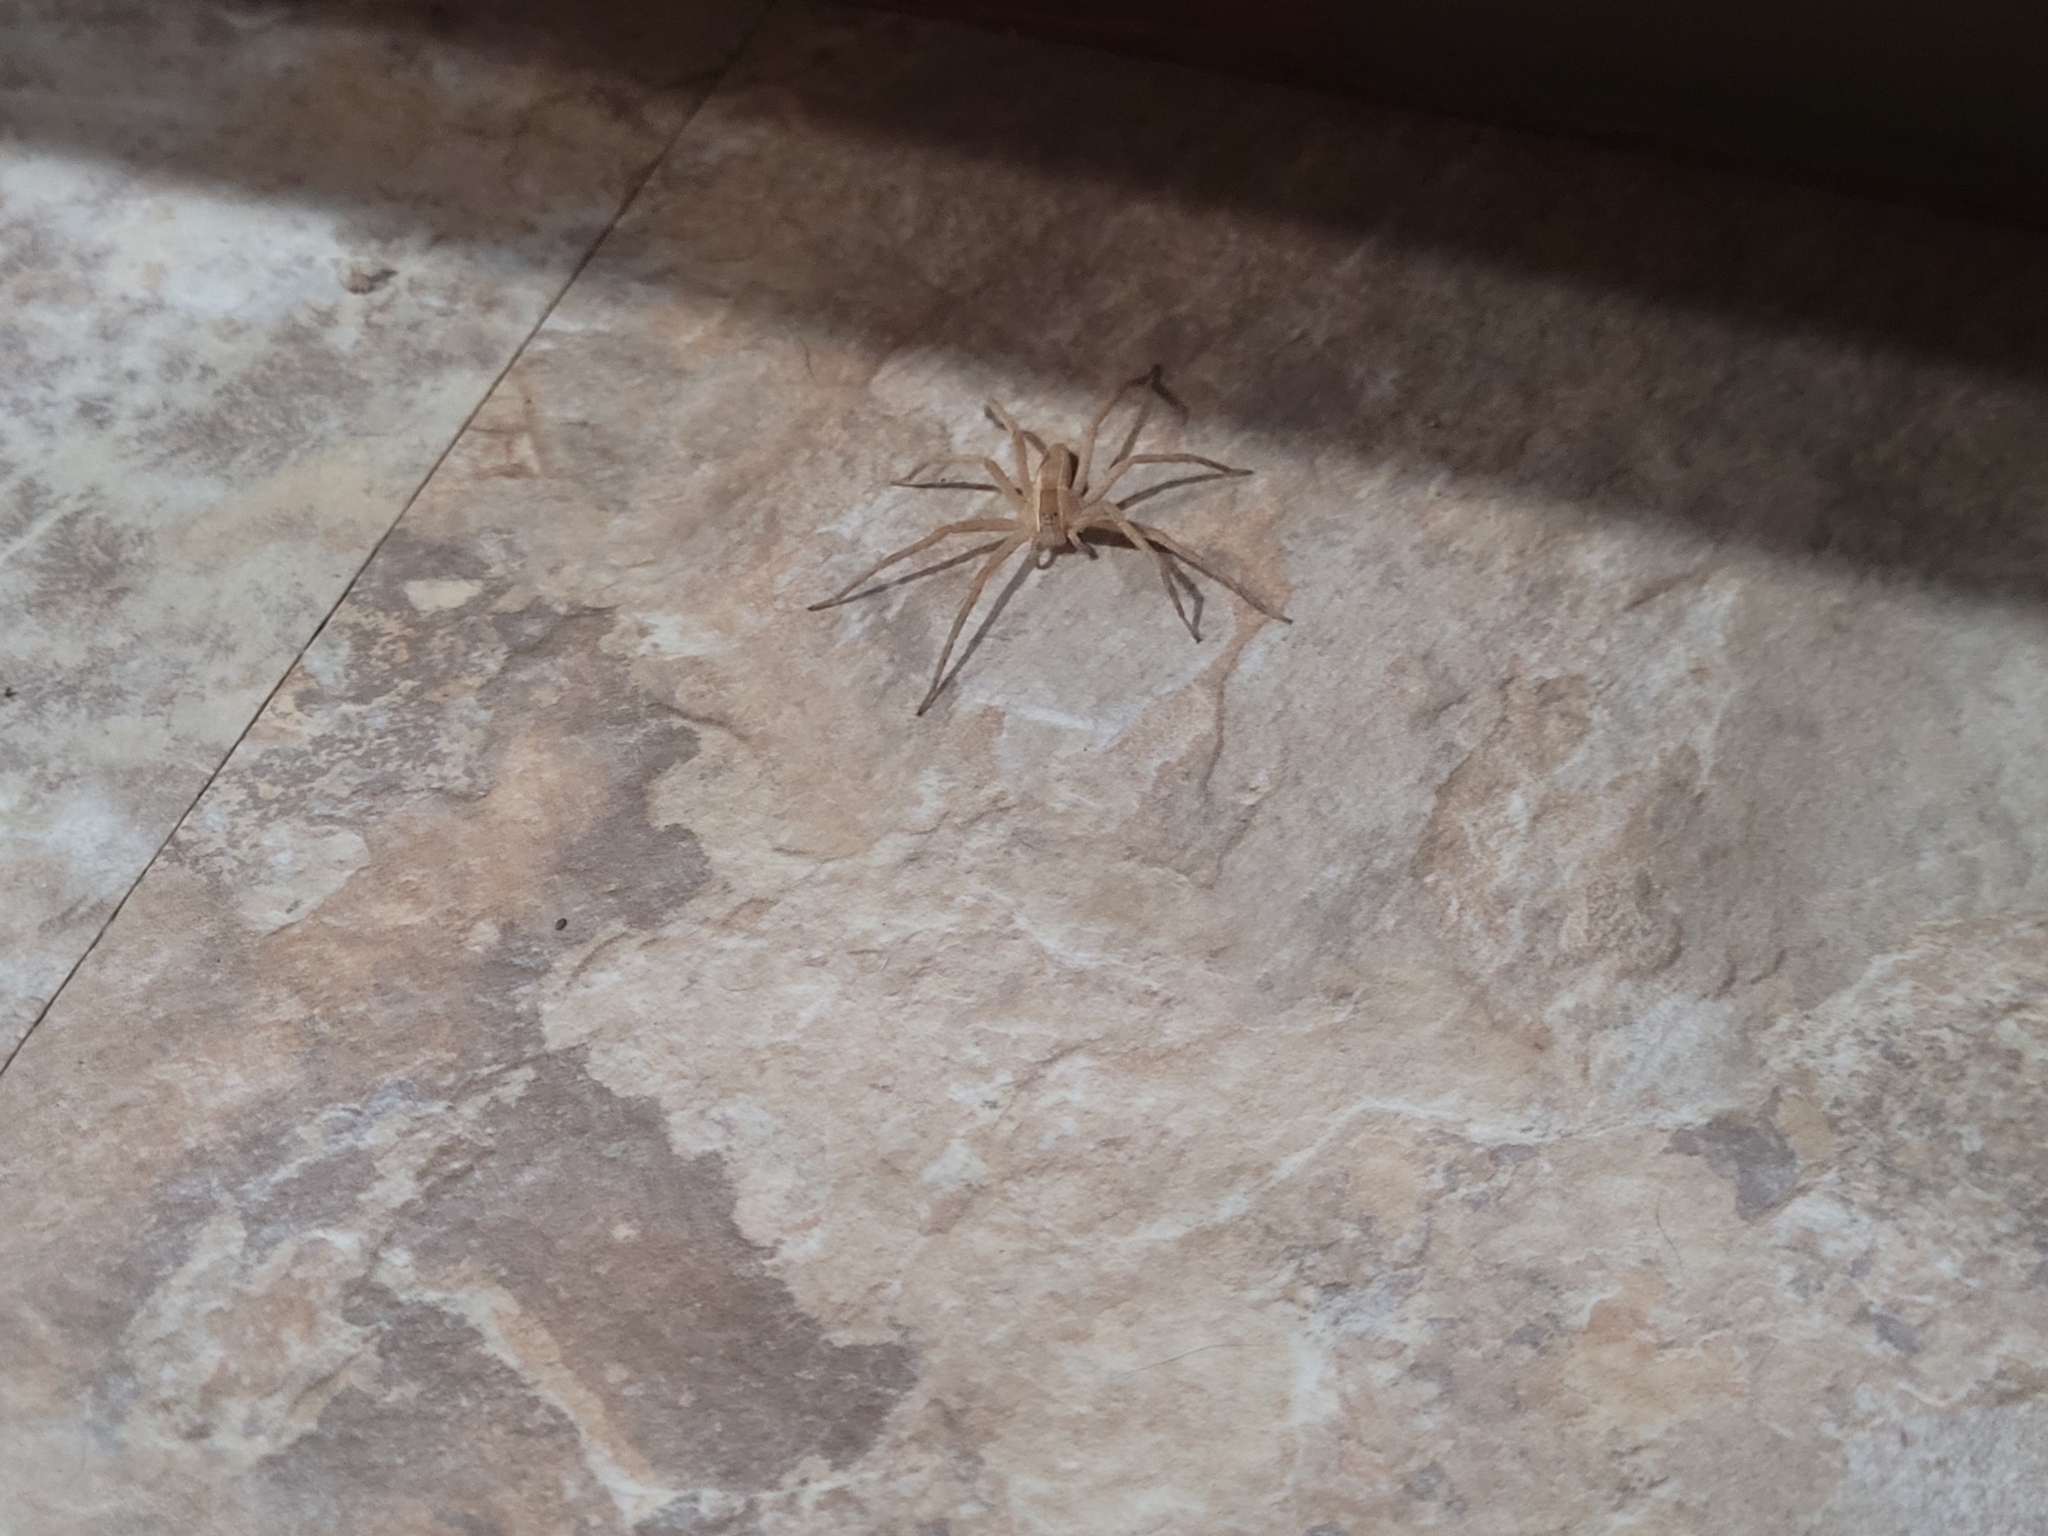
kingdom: Animalia
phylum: Arthropoda
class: Arachnida
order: Araneae
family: Pisauridae
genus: Pisaurina
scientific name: Pisaurina mira
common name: American nursery web spider
